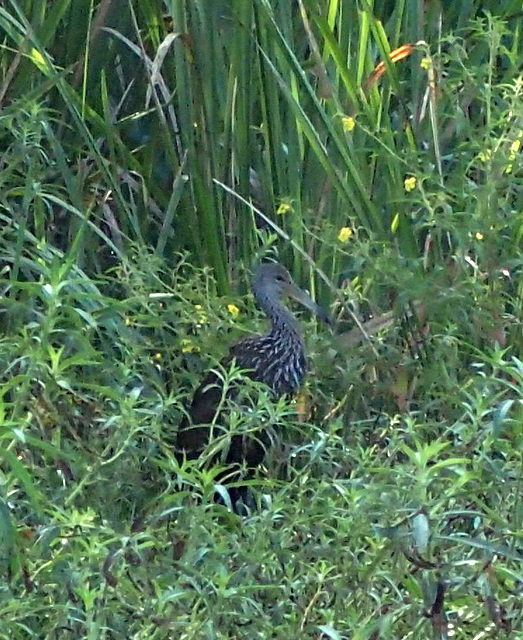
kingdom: Animalia
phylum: Chordata
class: Aves
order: Gruiformes
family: Aramidae
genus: Aramus
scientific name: Aramus guarauna
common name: Limpkin
